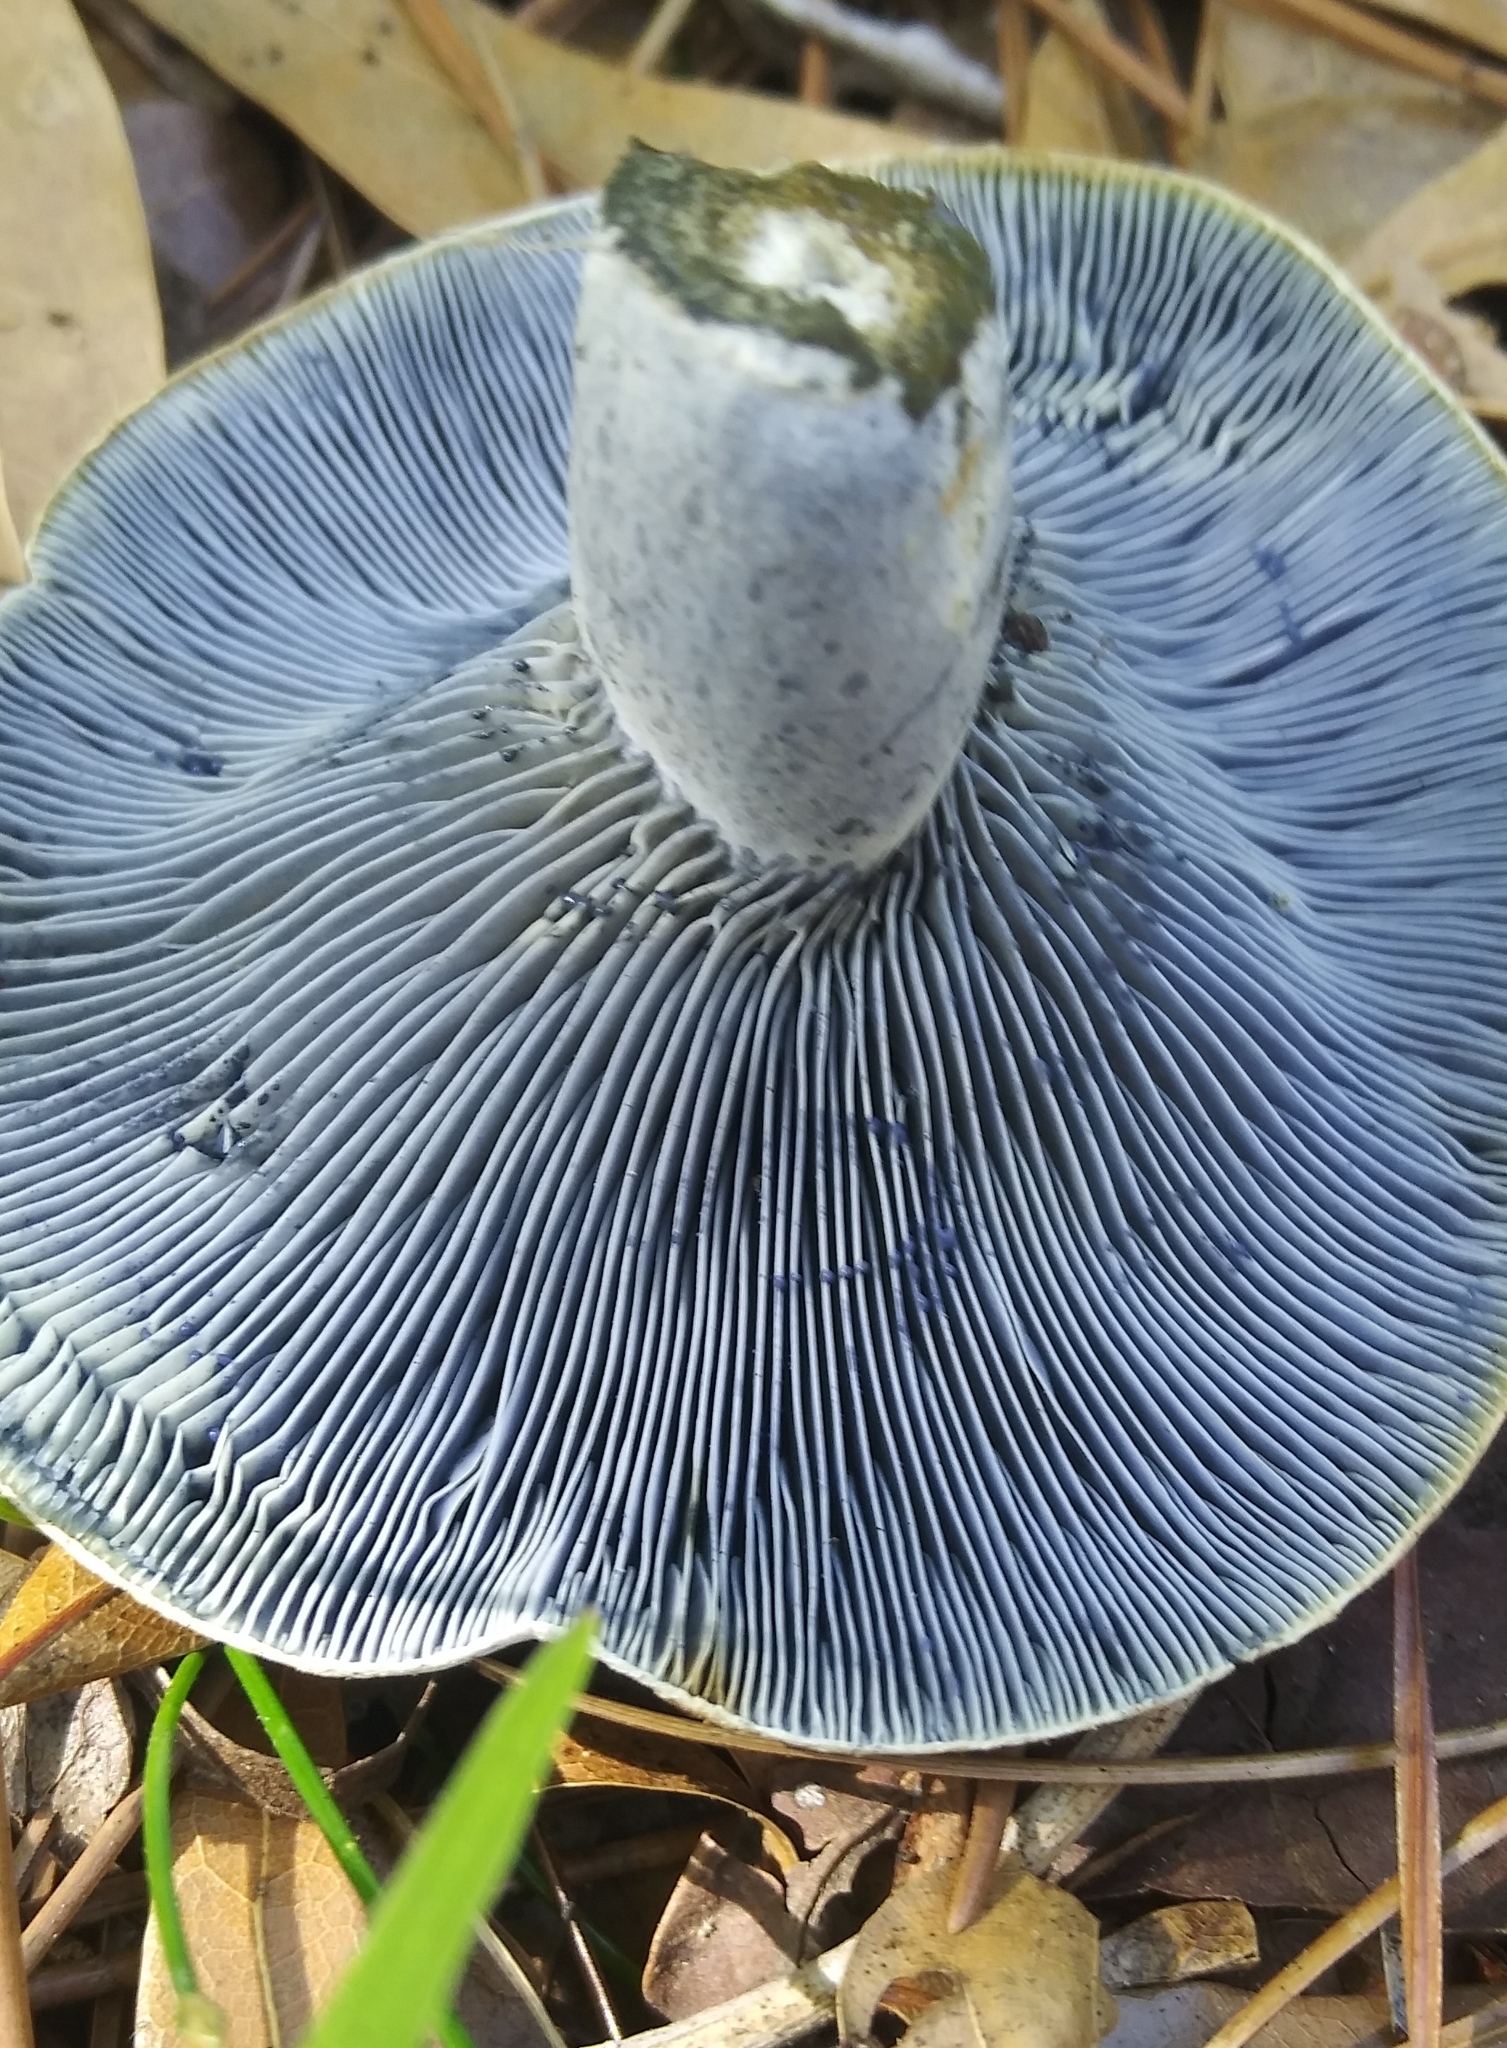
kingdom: Fungi
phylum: Basidiomycota
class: Agaricomycetes
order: Russulales
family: Russulaceae
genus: Lactarius
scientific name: Lactarius indigo
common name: Indigo milk cap
